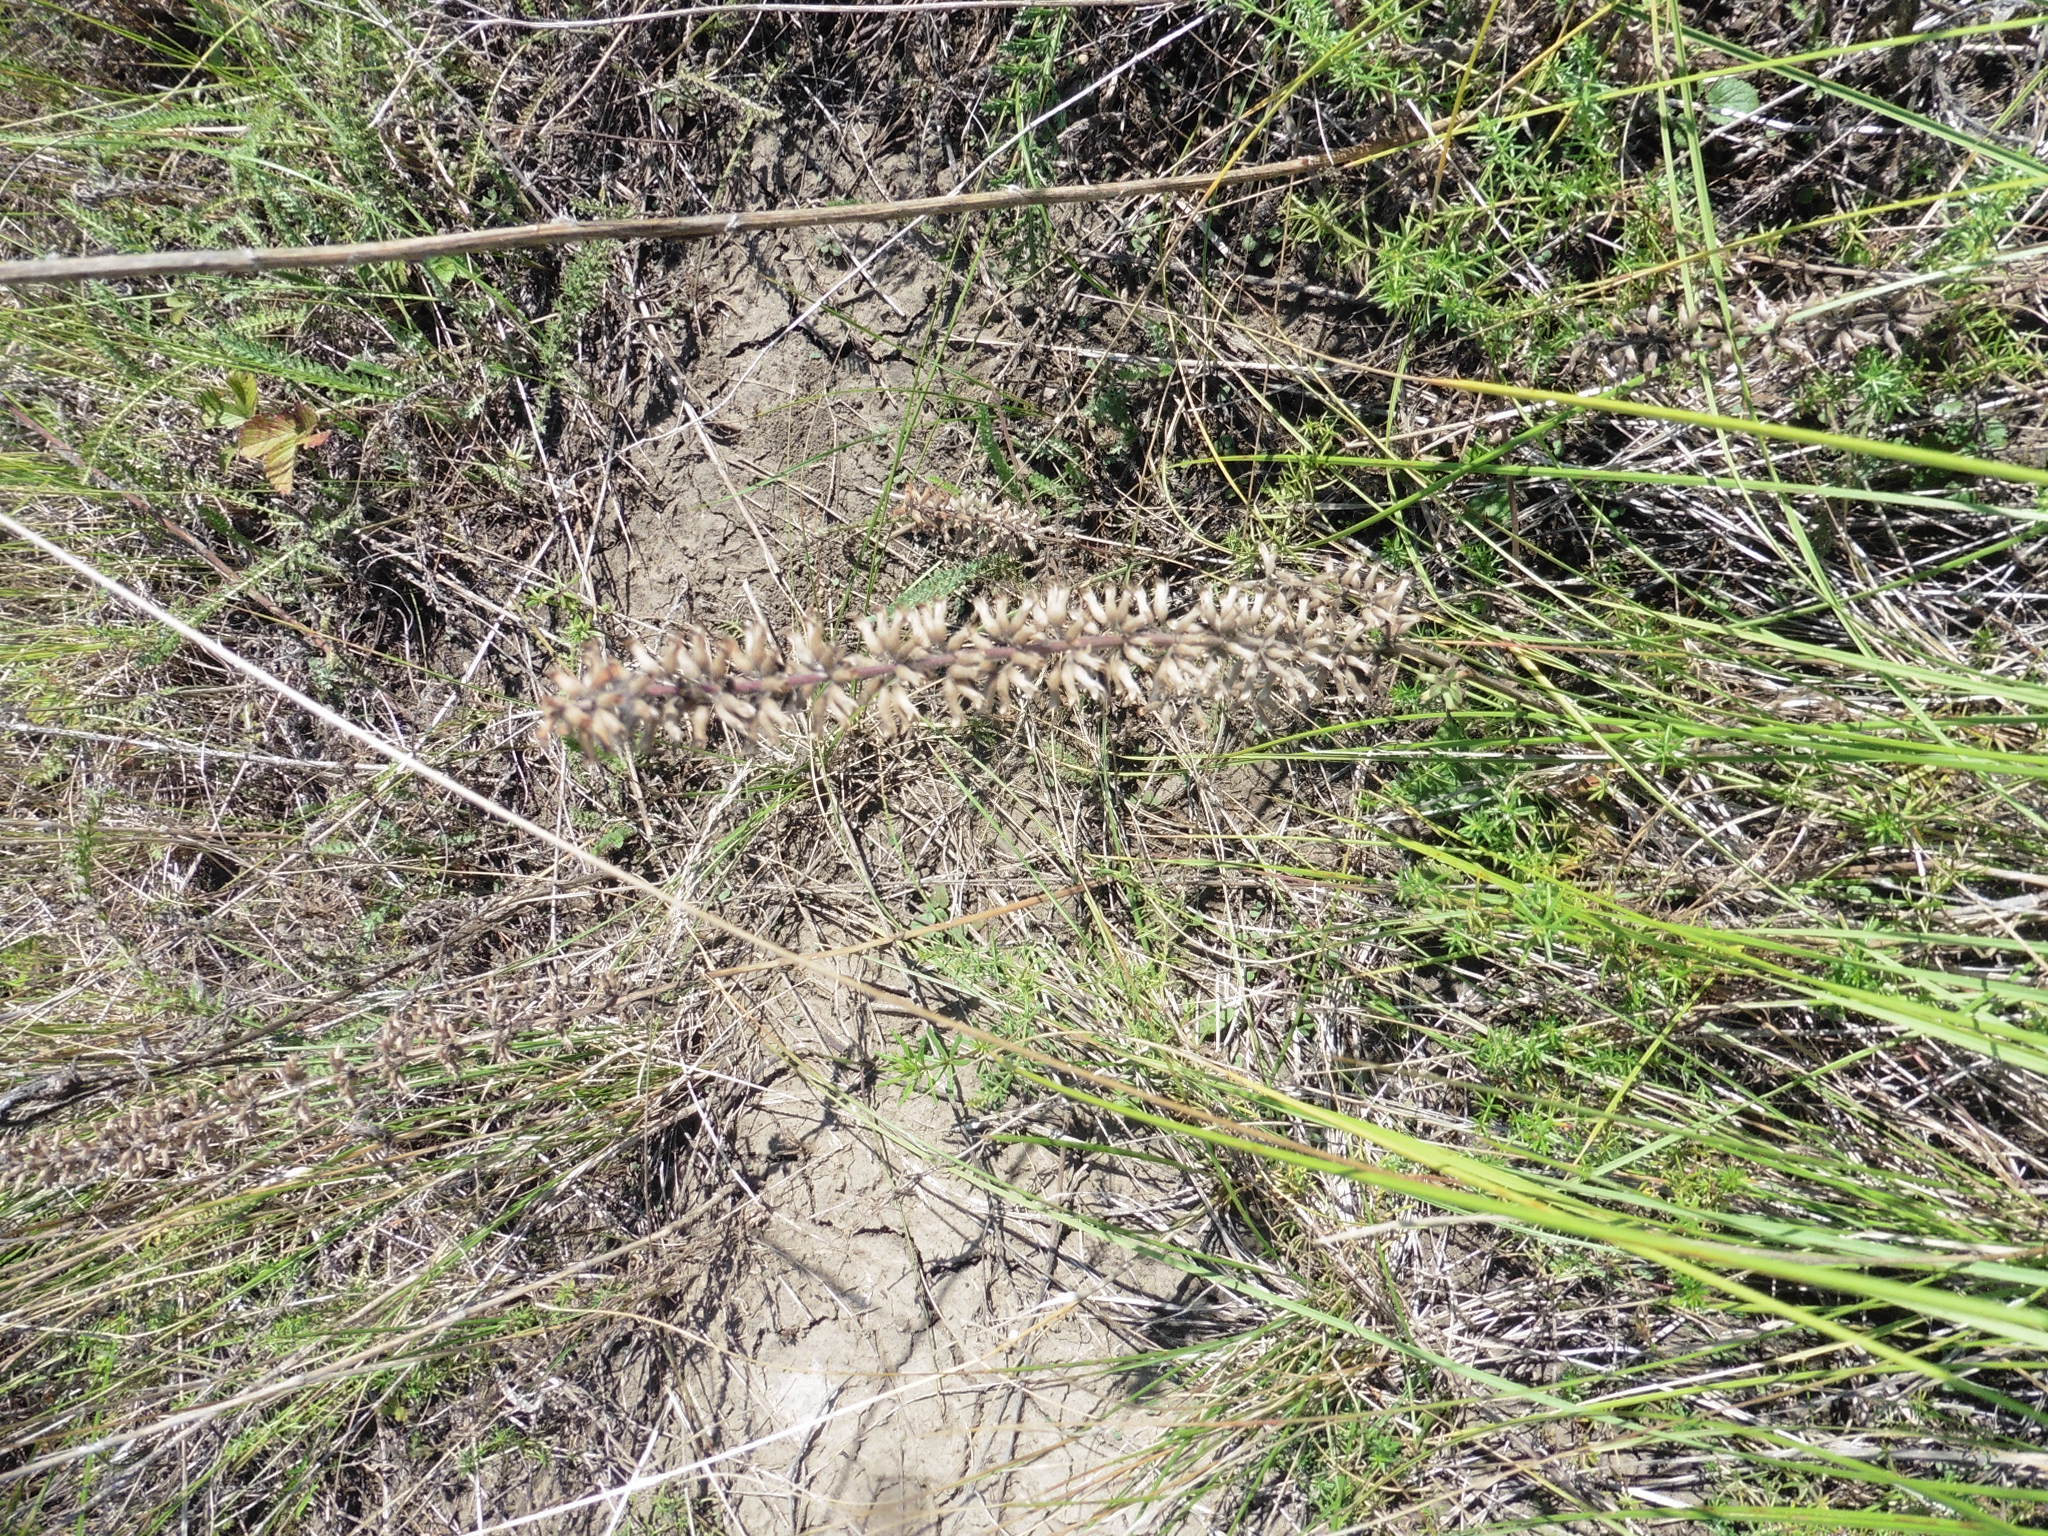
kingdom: Plantae
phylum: Tracheophyta
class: Magnoliopsida
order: Lamiales
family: Lamiaceae
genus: Dracocephalum
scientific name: Dracocephalum thymiflorum
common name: Thymeleaf dragonhead
